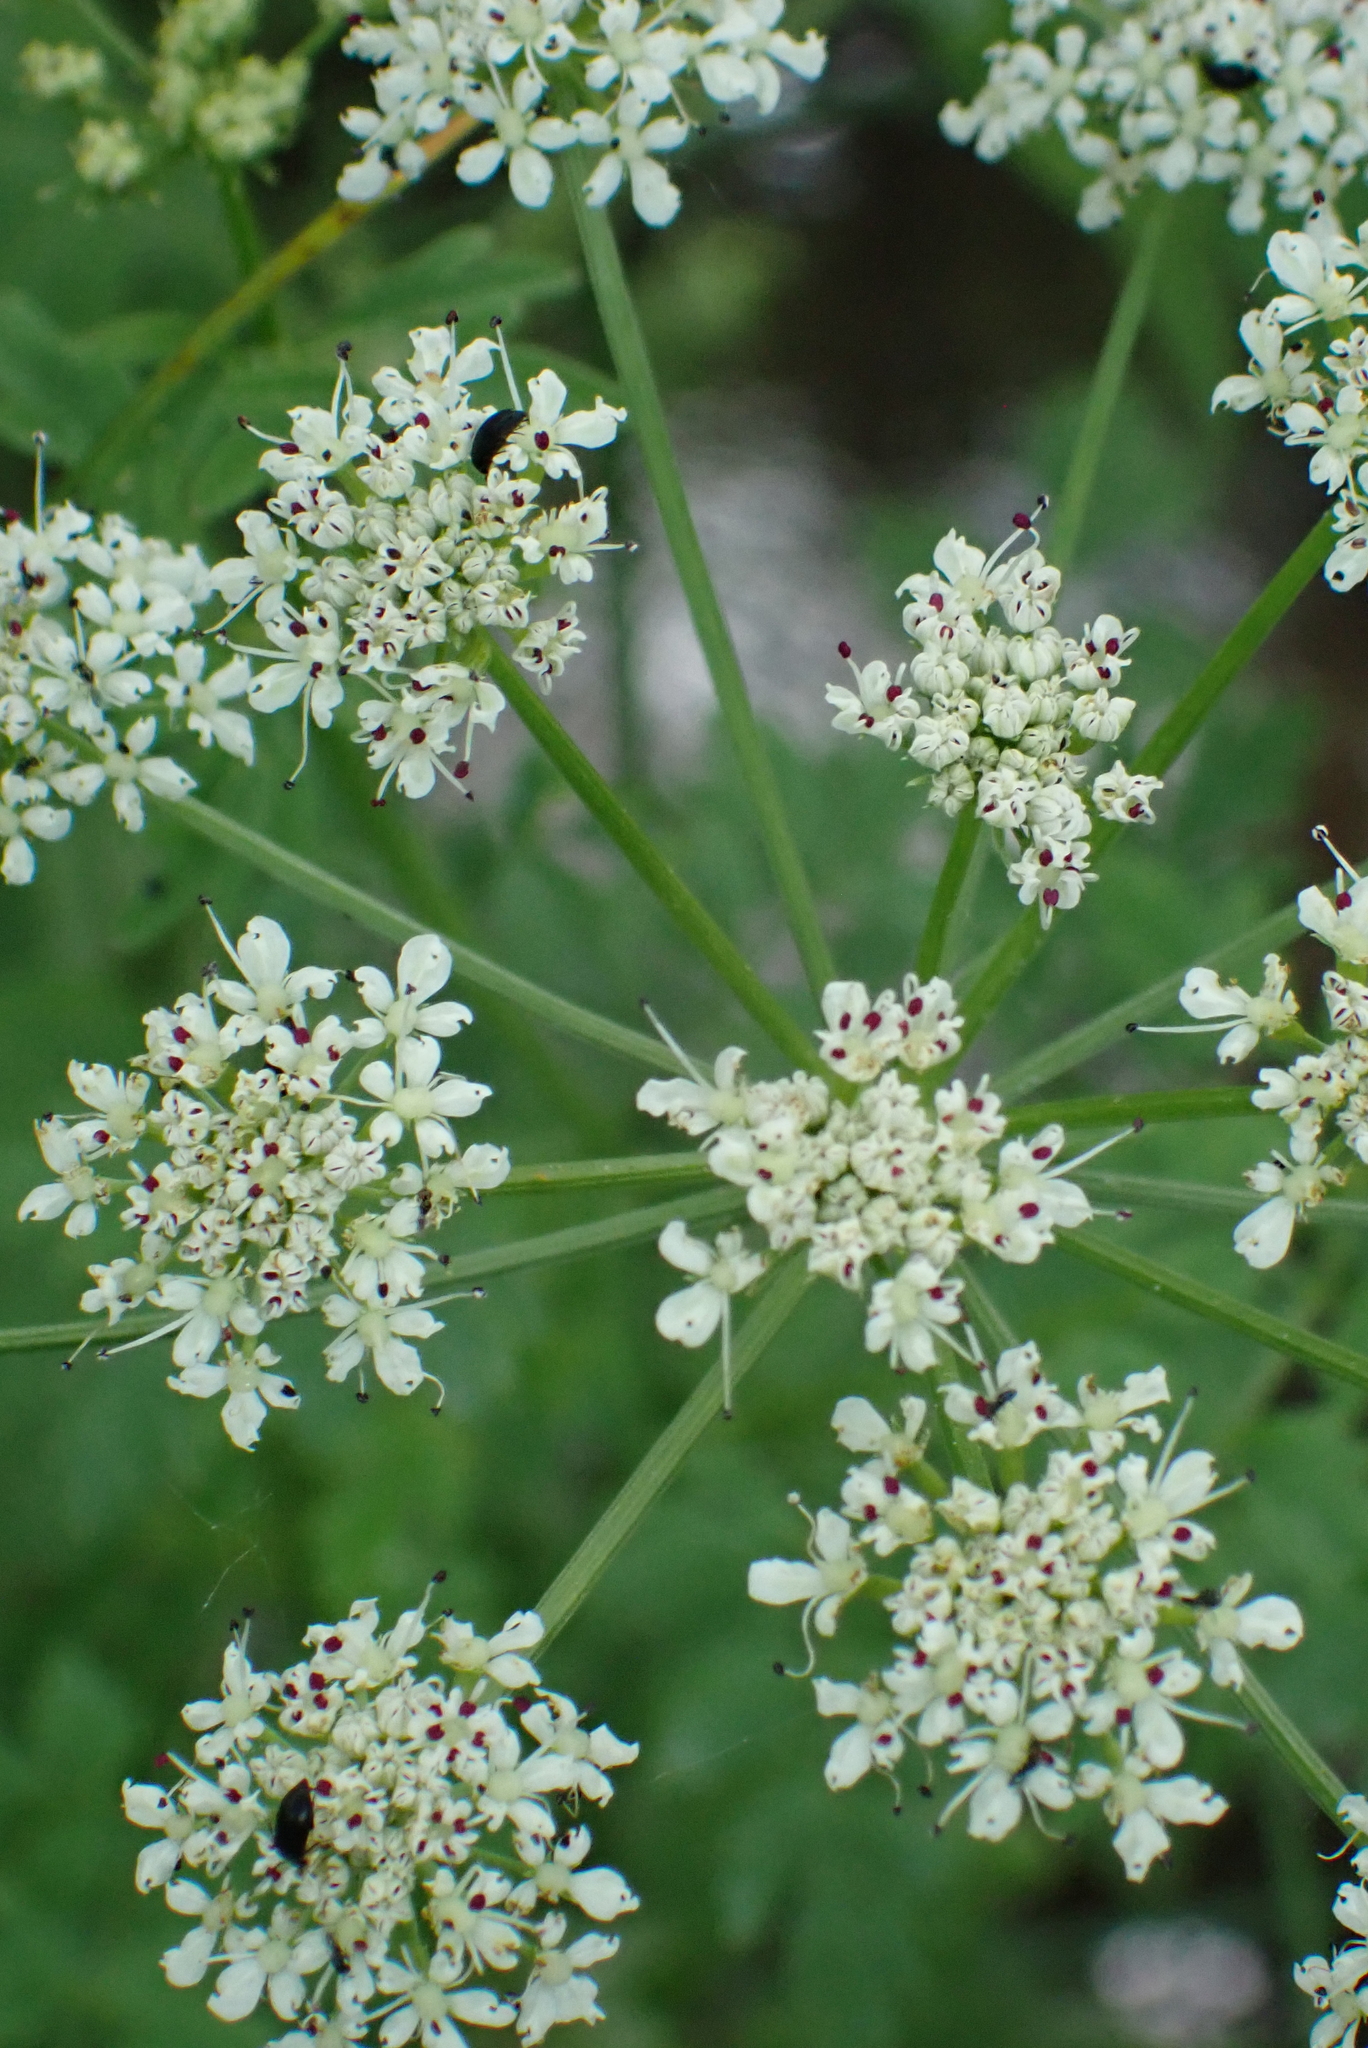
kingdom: Plantae
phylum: Tracheophyta
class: Magnoliopsida
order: Apiales
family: Apiaceae
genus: Oenanthe
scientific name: Oenanthe crocata
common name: Hemlock water-dropwort
